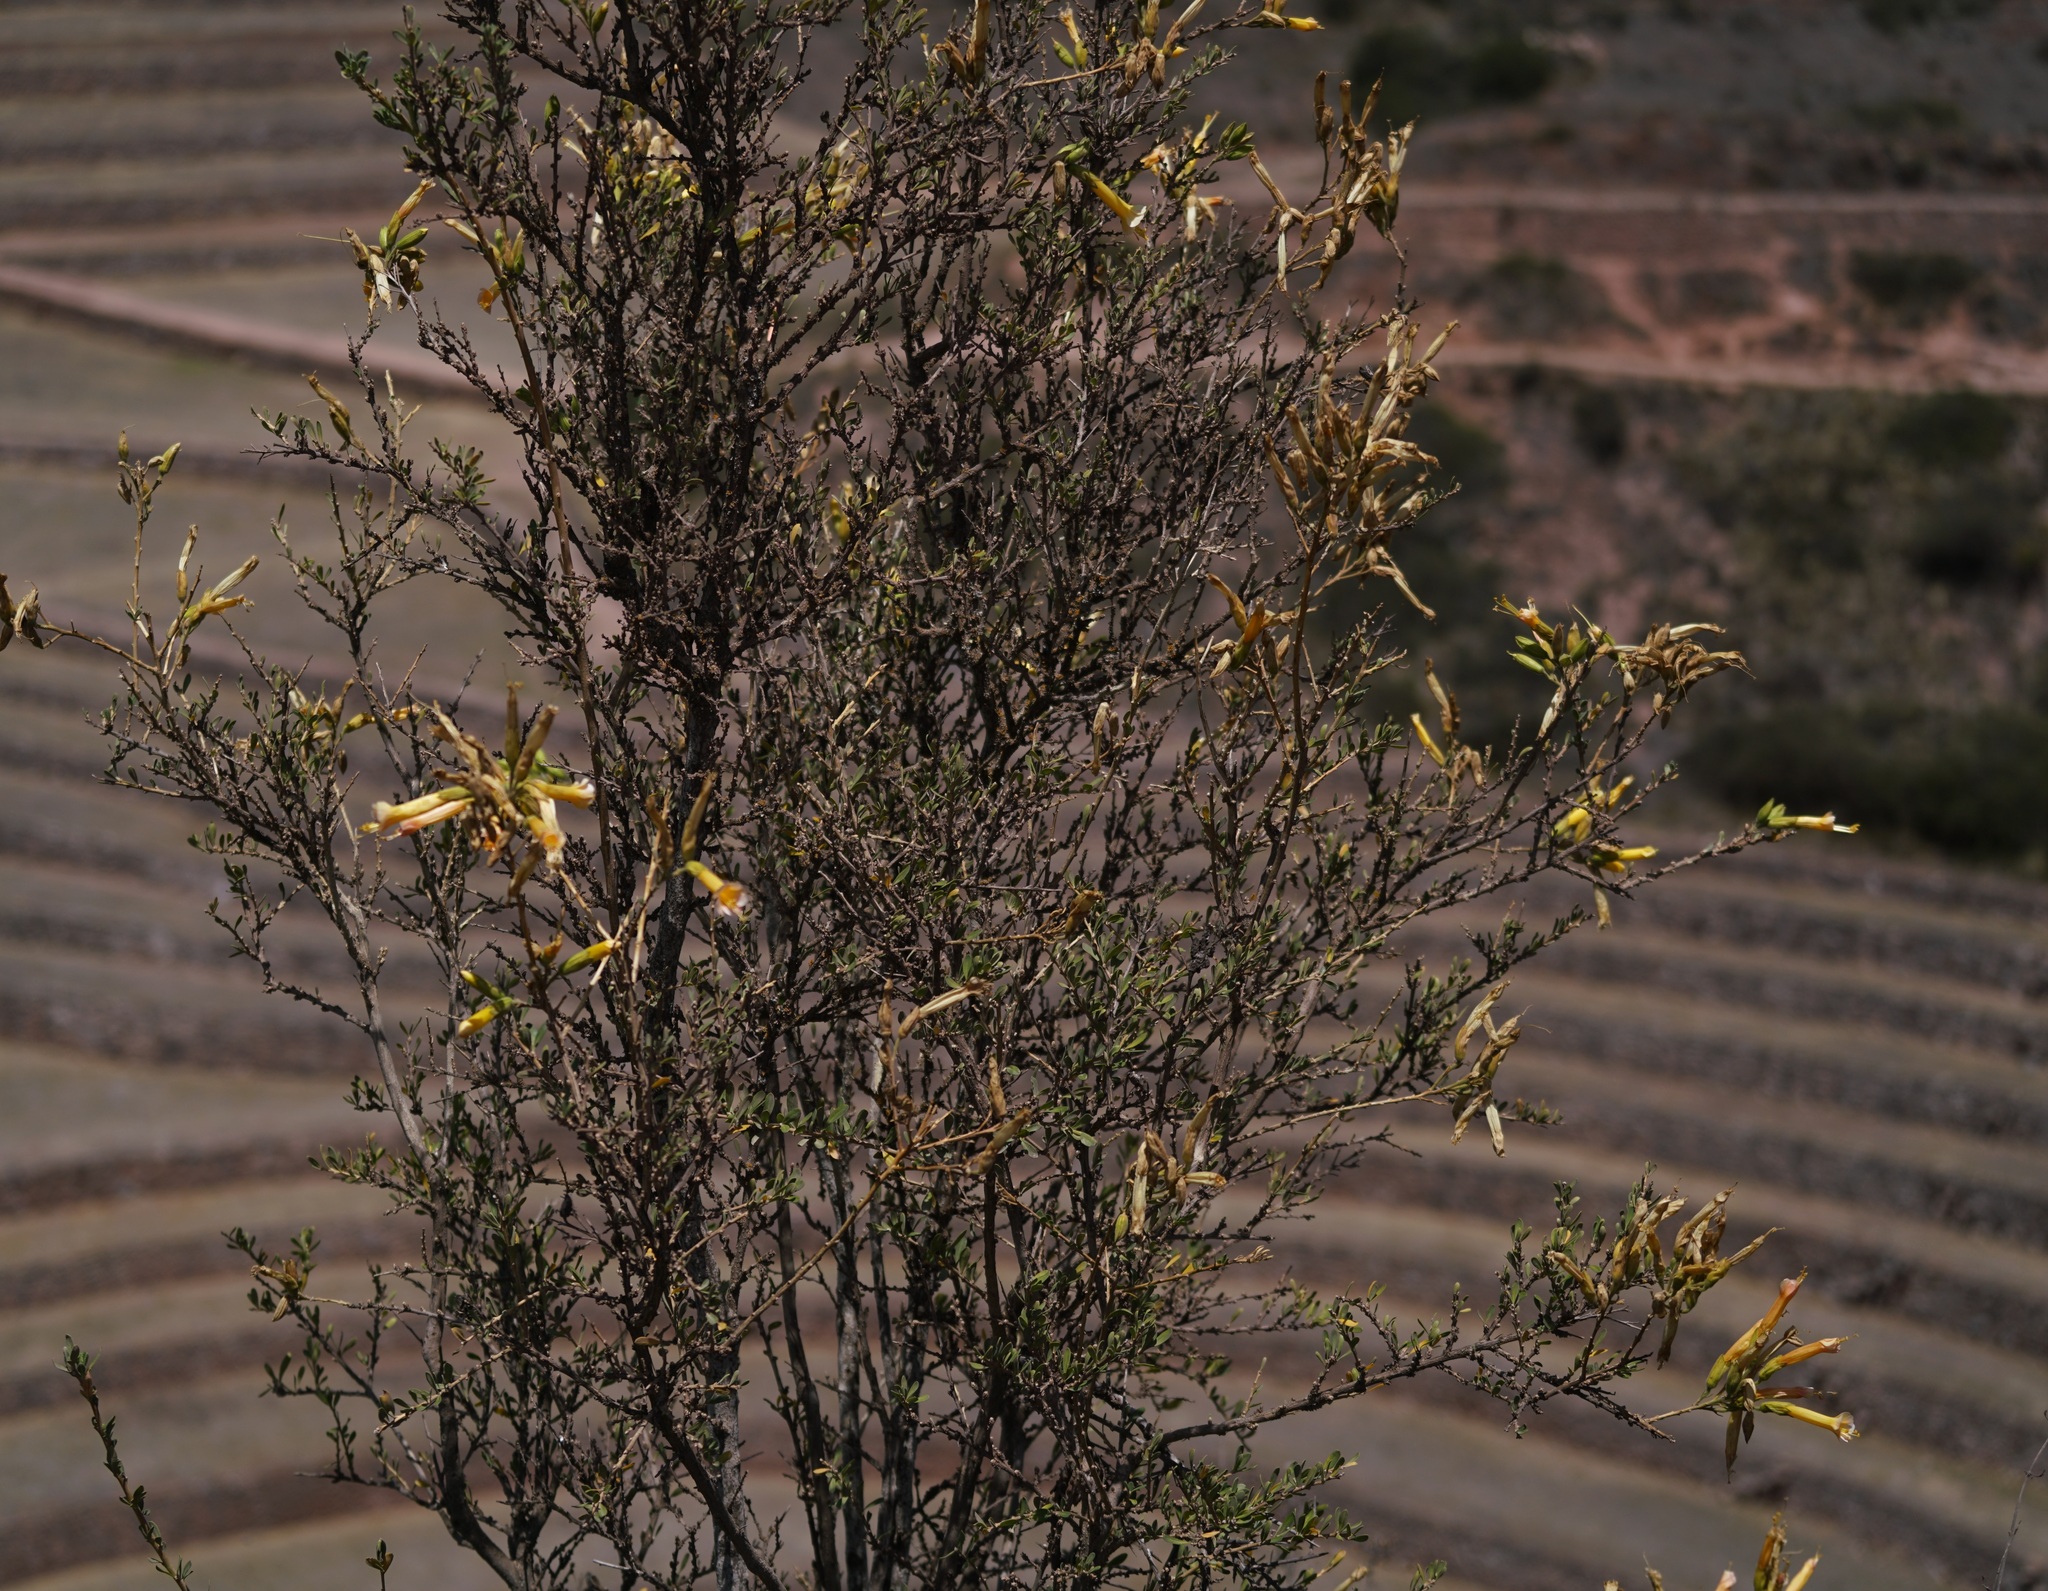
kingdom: Plantae
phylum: Tracheophyta
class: Magnoliopsida
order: Ericales
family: Polemoniaceae
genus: Cantua
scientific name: Cantua buxifolia
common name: Sacred-flower-of-the-incas
